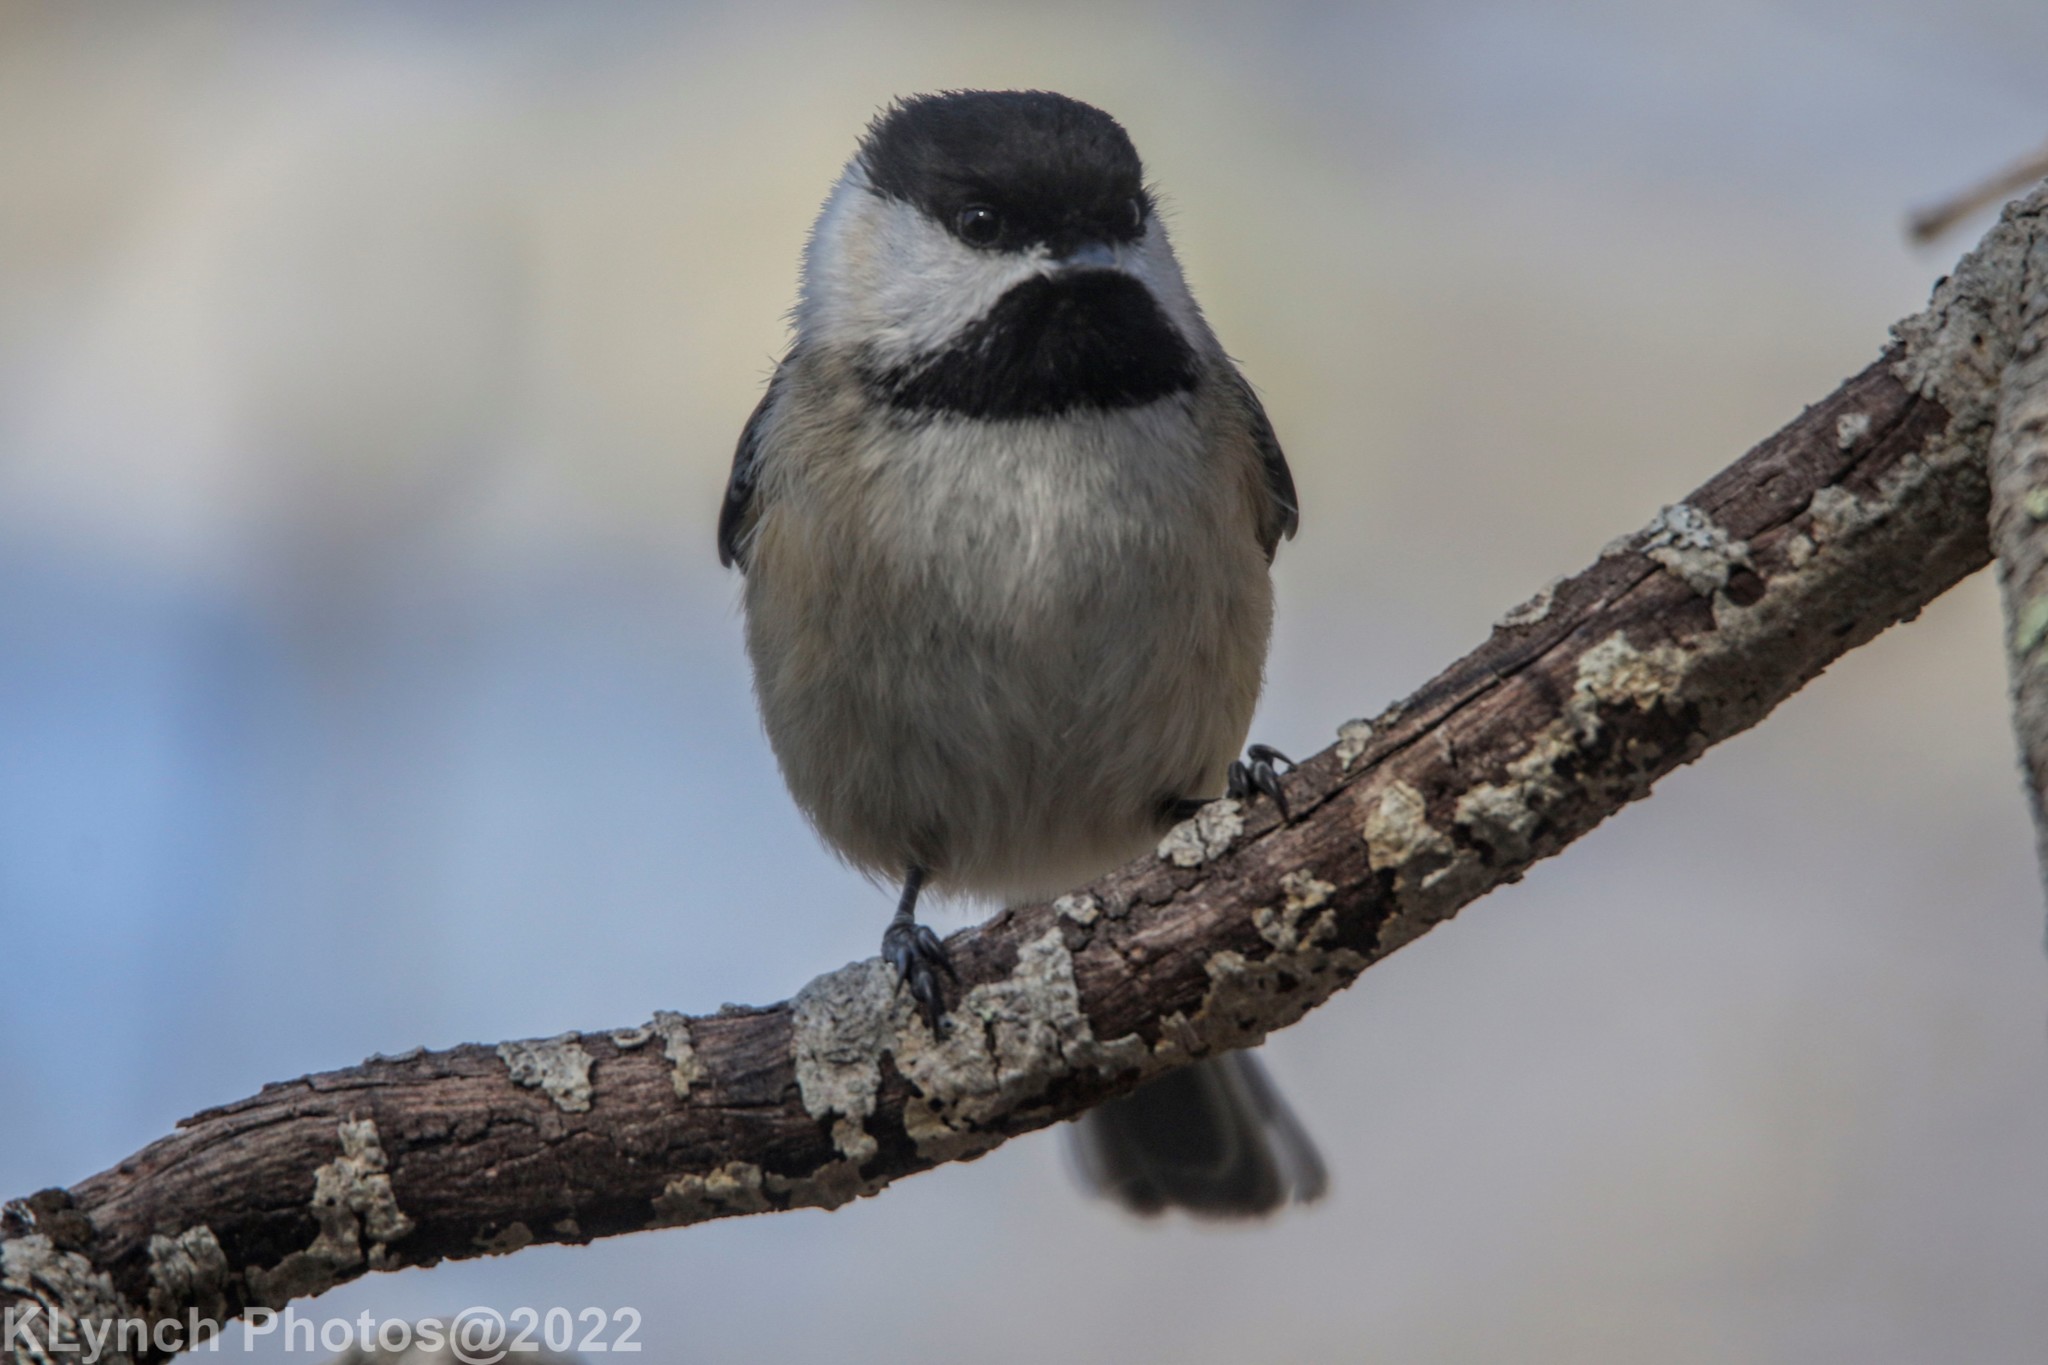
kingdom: Animalia
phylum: Chordata
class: Aves
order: Passeriformes
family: Paridae
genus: Poecile
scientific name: Poecile atricapillus
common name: Black-capped chickadee
